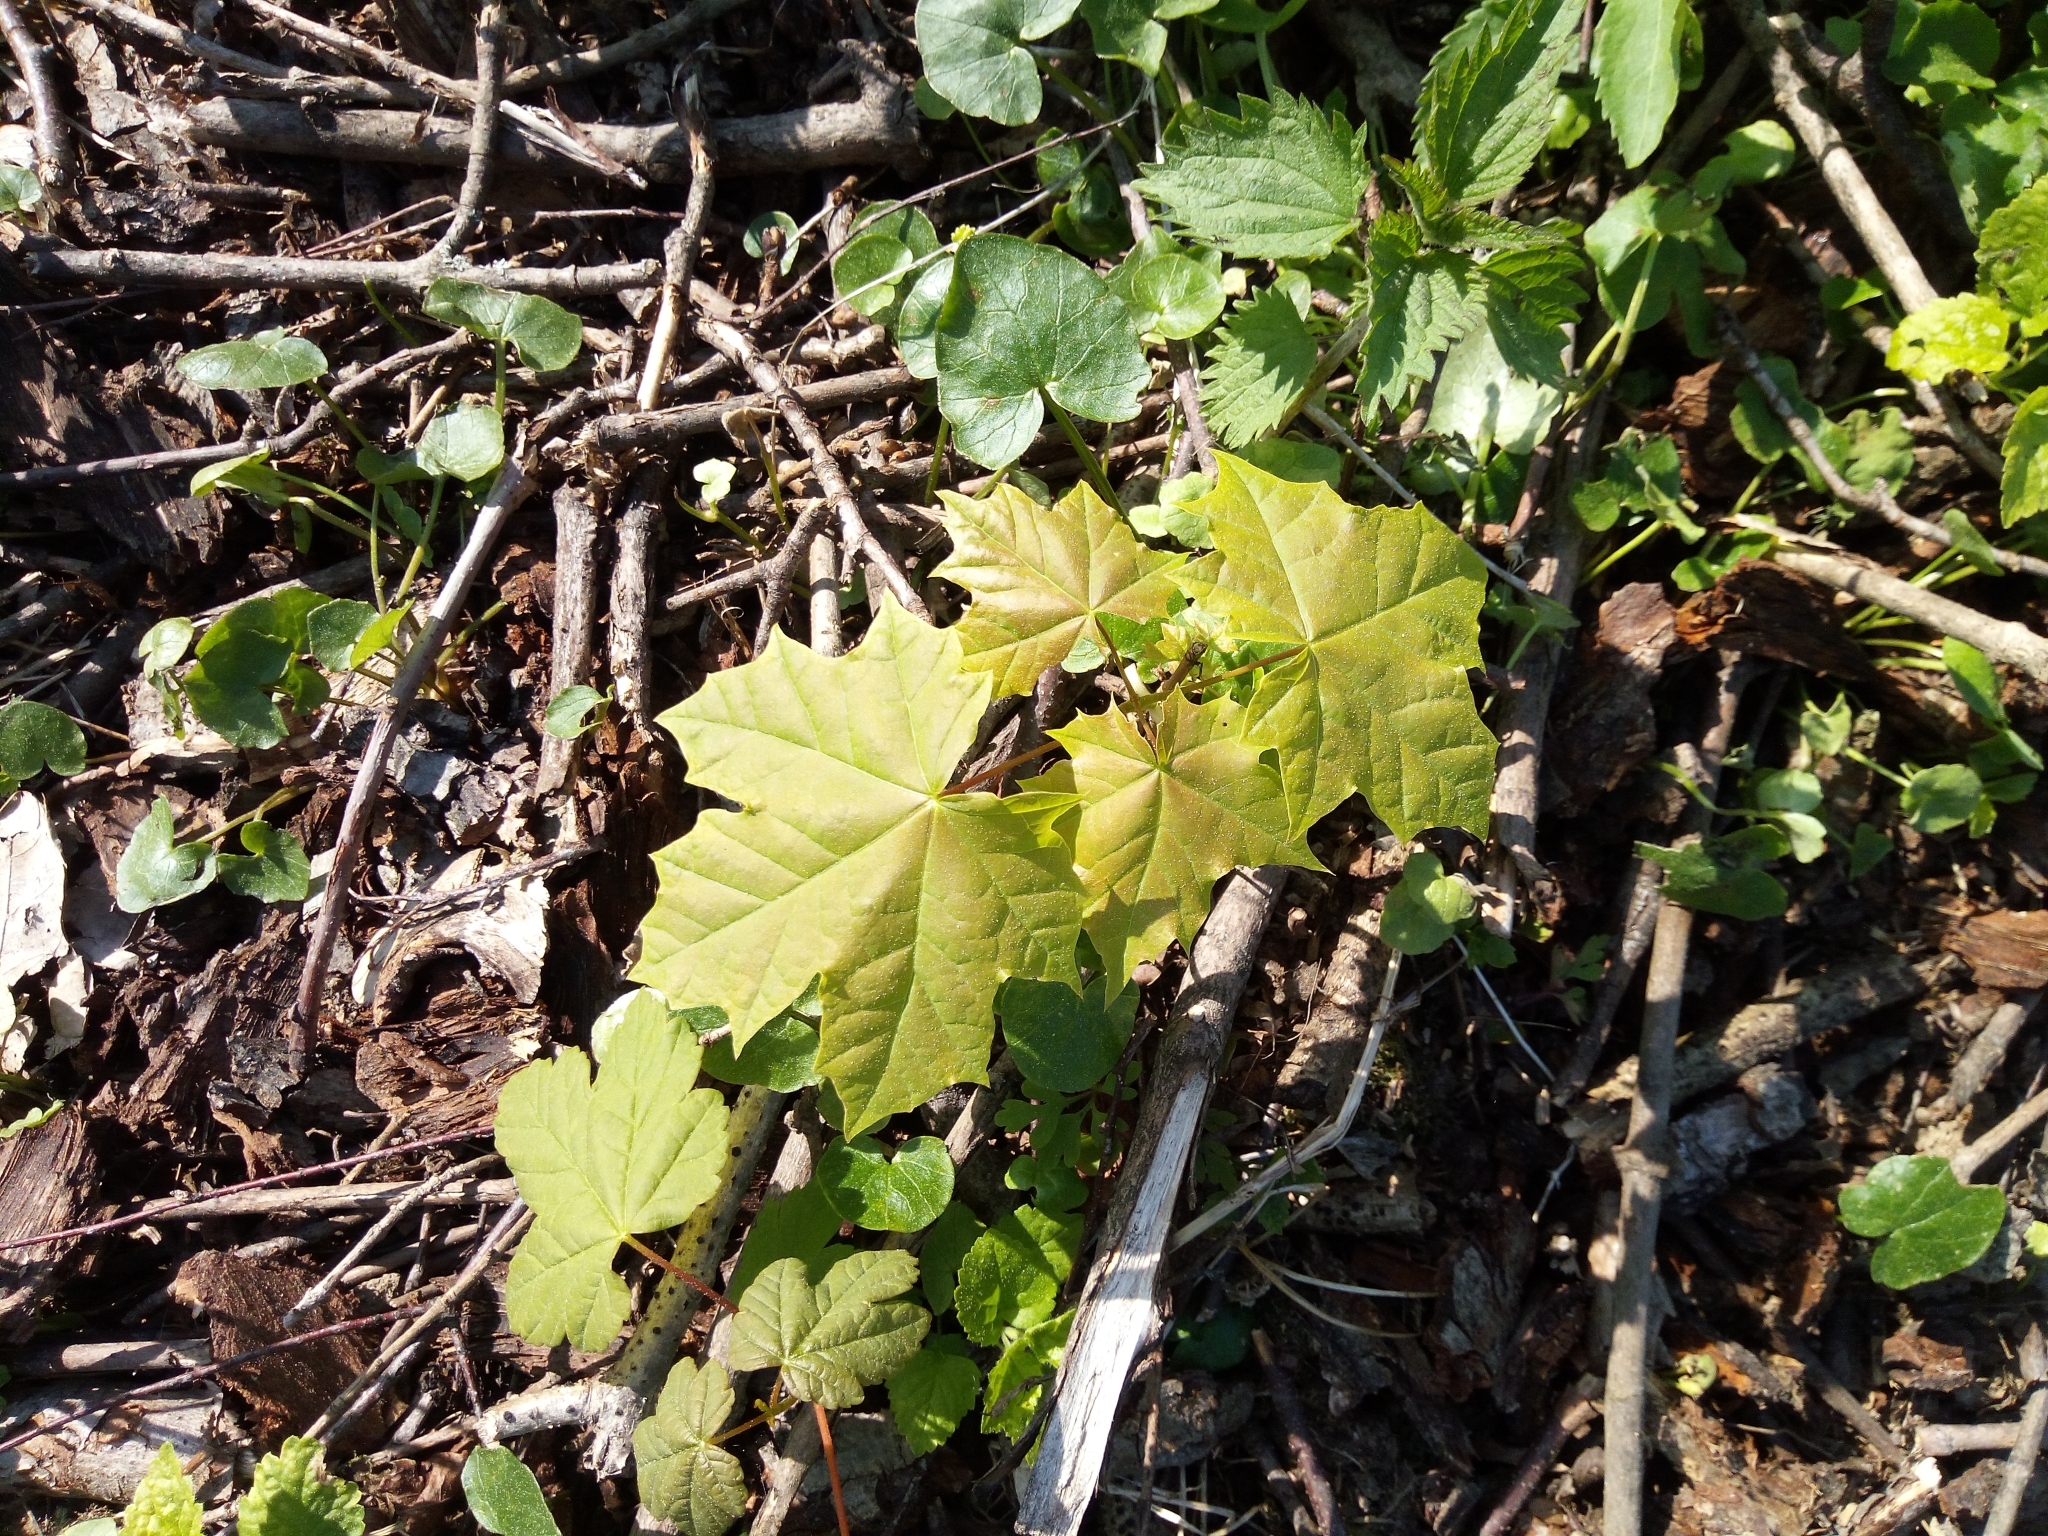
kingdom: Plantae
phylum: Tracheophyta
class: Magnoliopsida
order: Sapindales
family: Sapindaceae
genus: Acer
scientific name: Acer platanoides
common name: Norway maple
